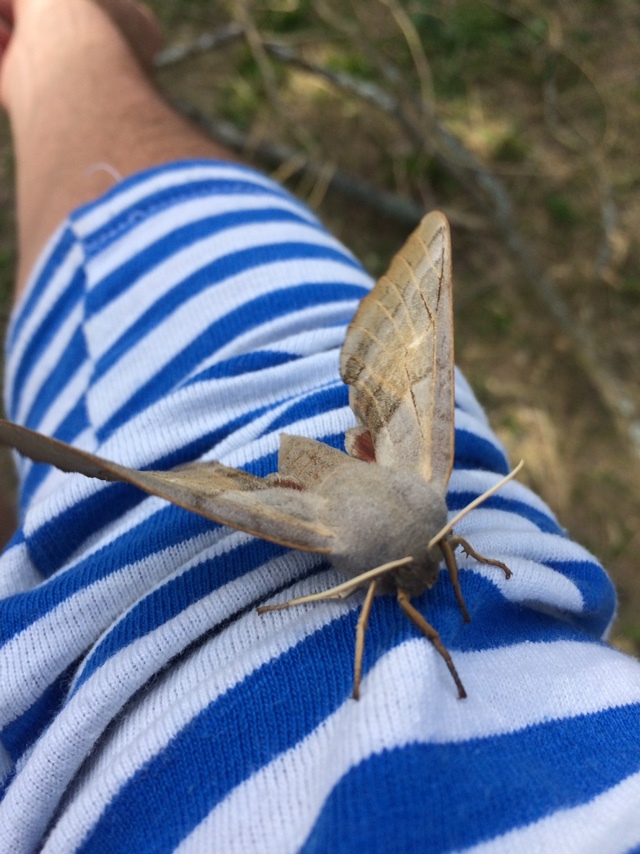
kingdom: Animalia
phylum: Arthropoda
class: Insecta
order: Lepidoptera
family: Sphingidae
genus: Laothoe
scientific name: Laothoe populi
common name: Poplar hawk-moth
